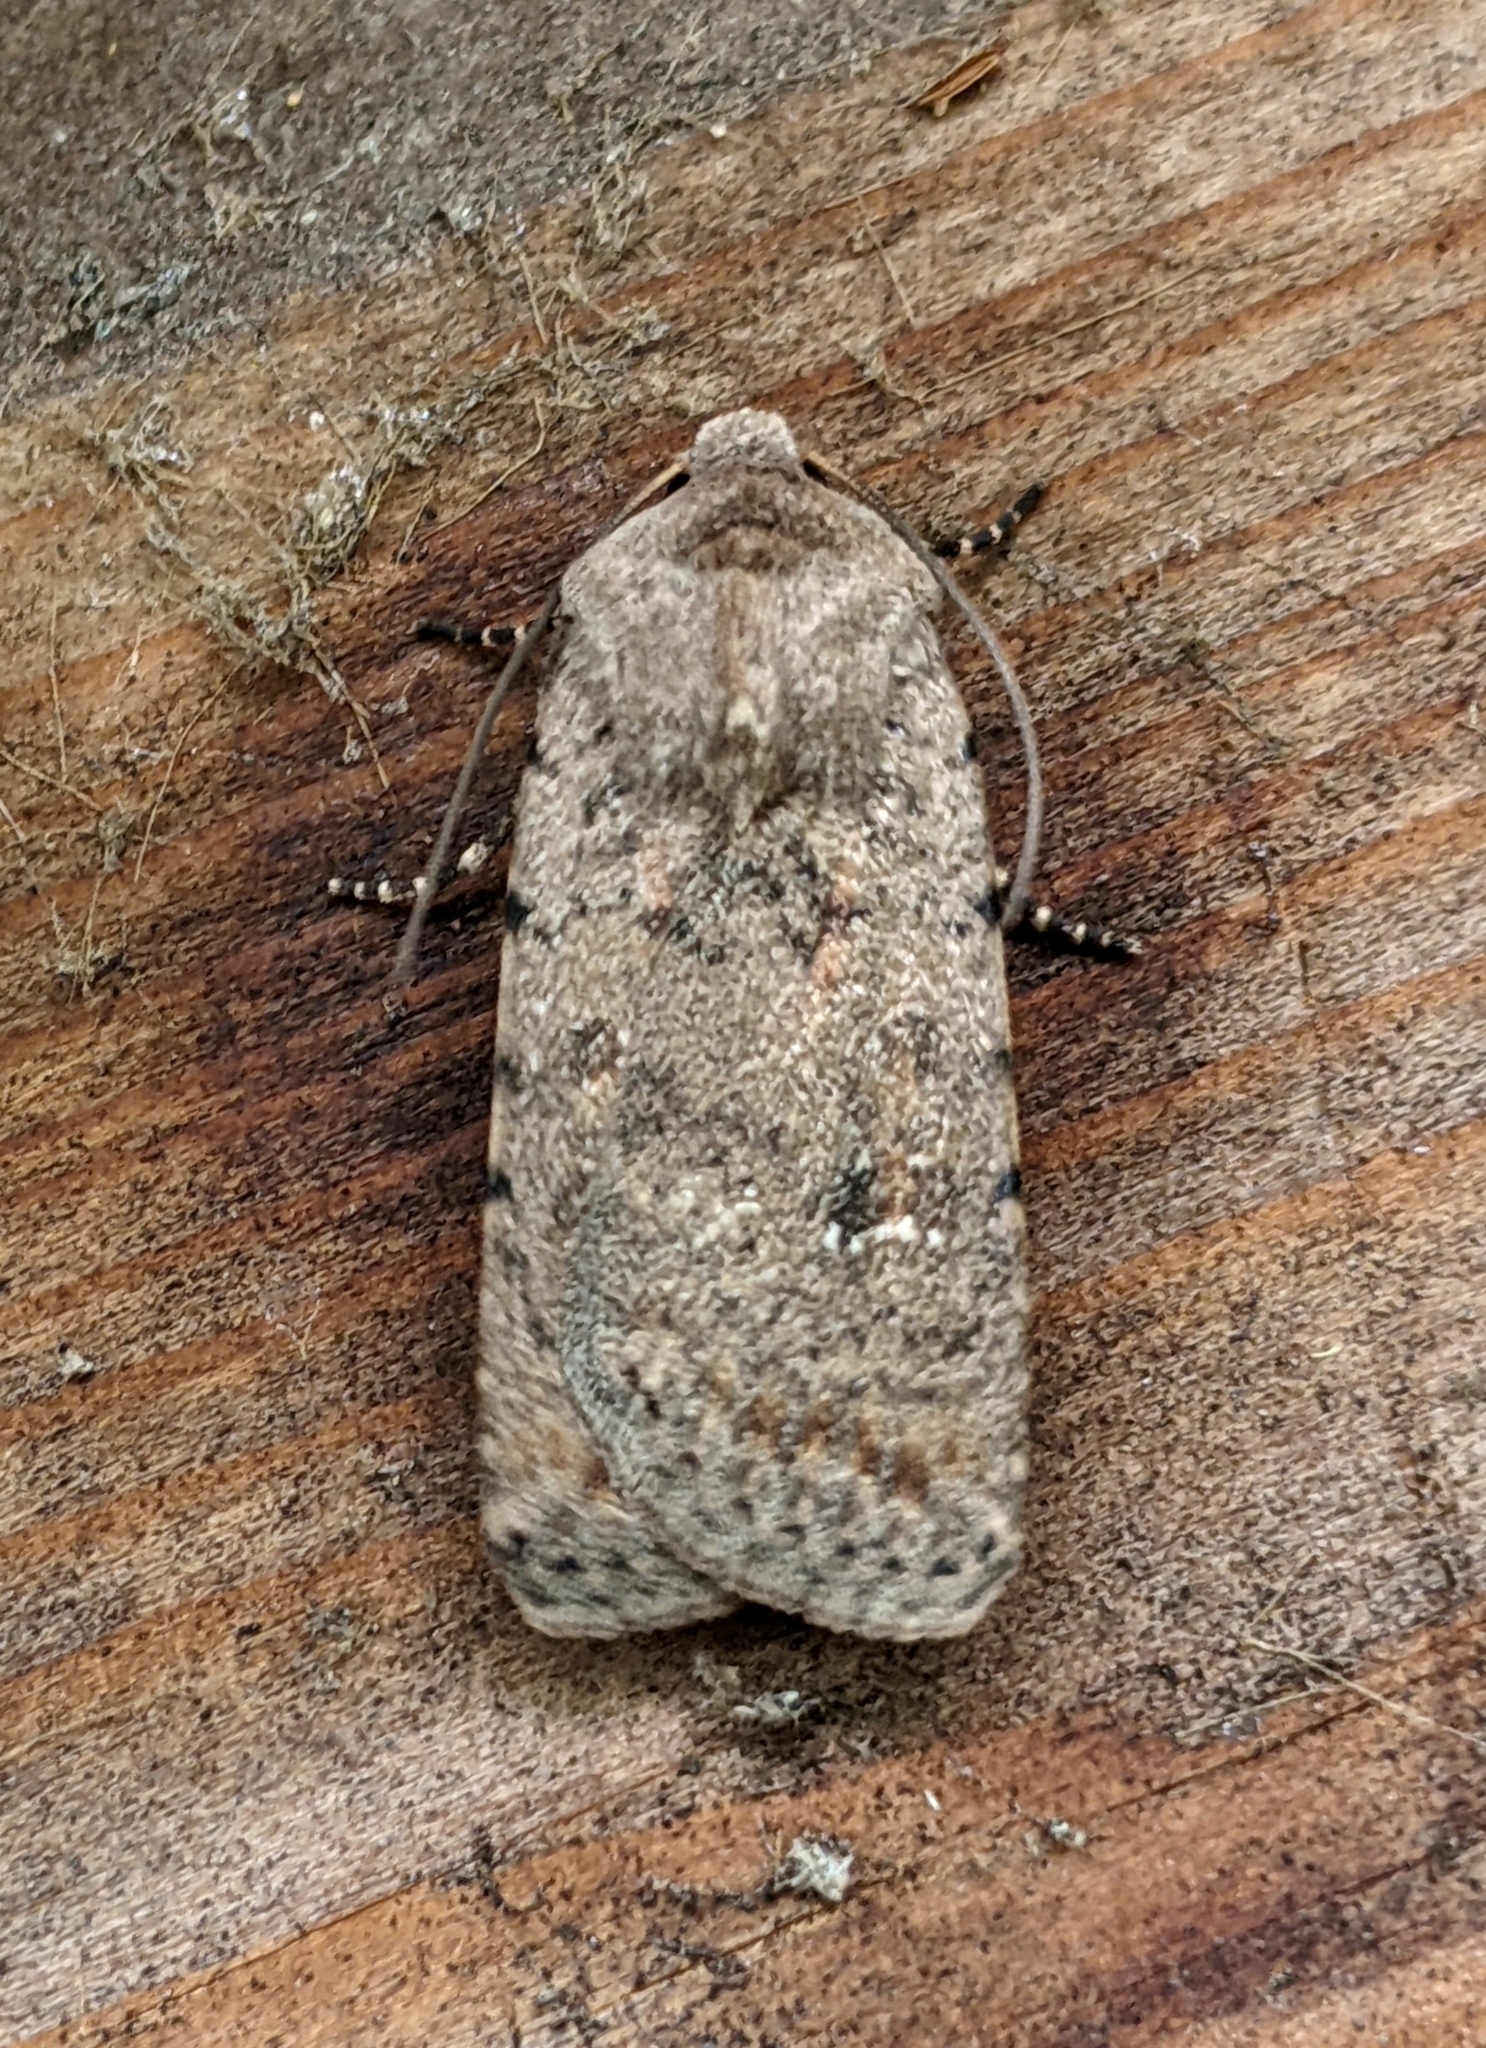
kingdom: Animalia
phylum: Arthropoda
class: Insecta
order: Lepidoptera
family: Noctuidae
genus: Caradrina
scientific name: Caradrina clavipalpis
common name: Pale mottled willow
